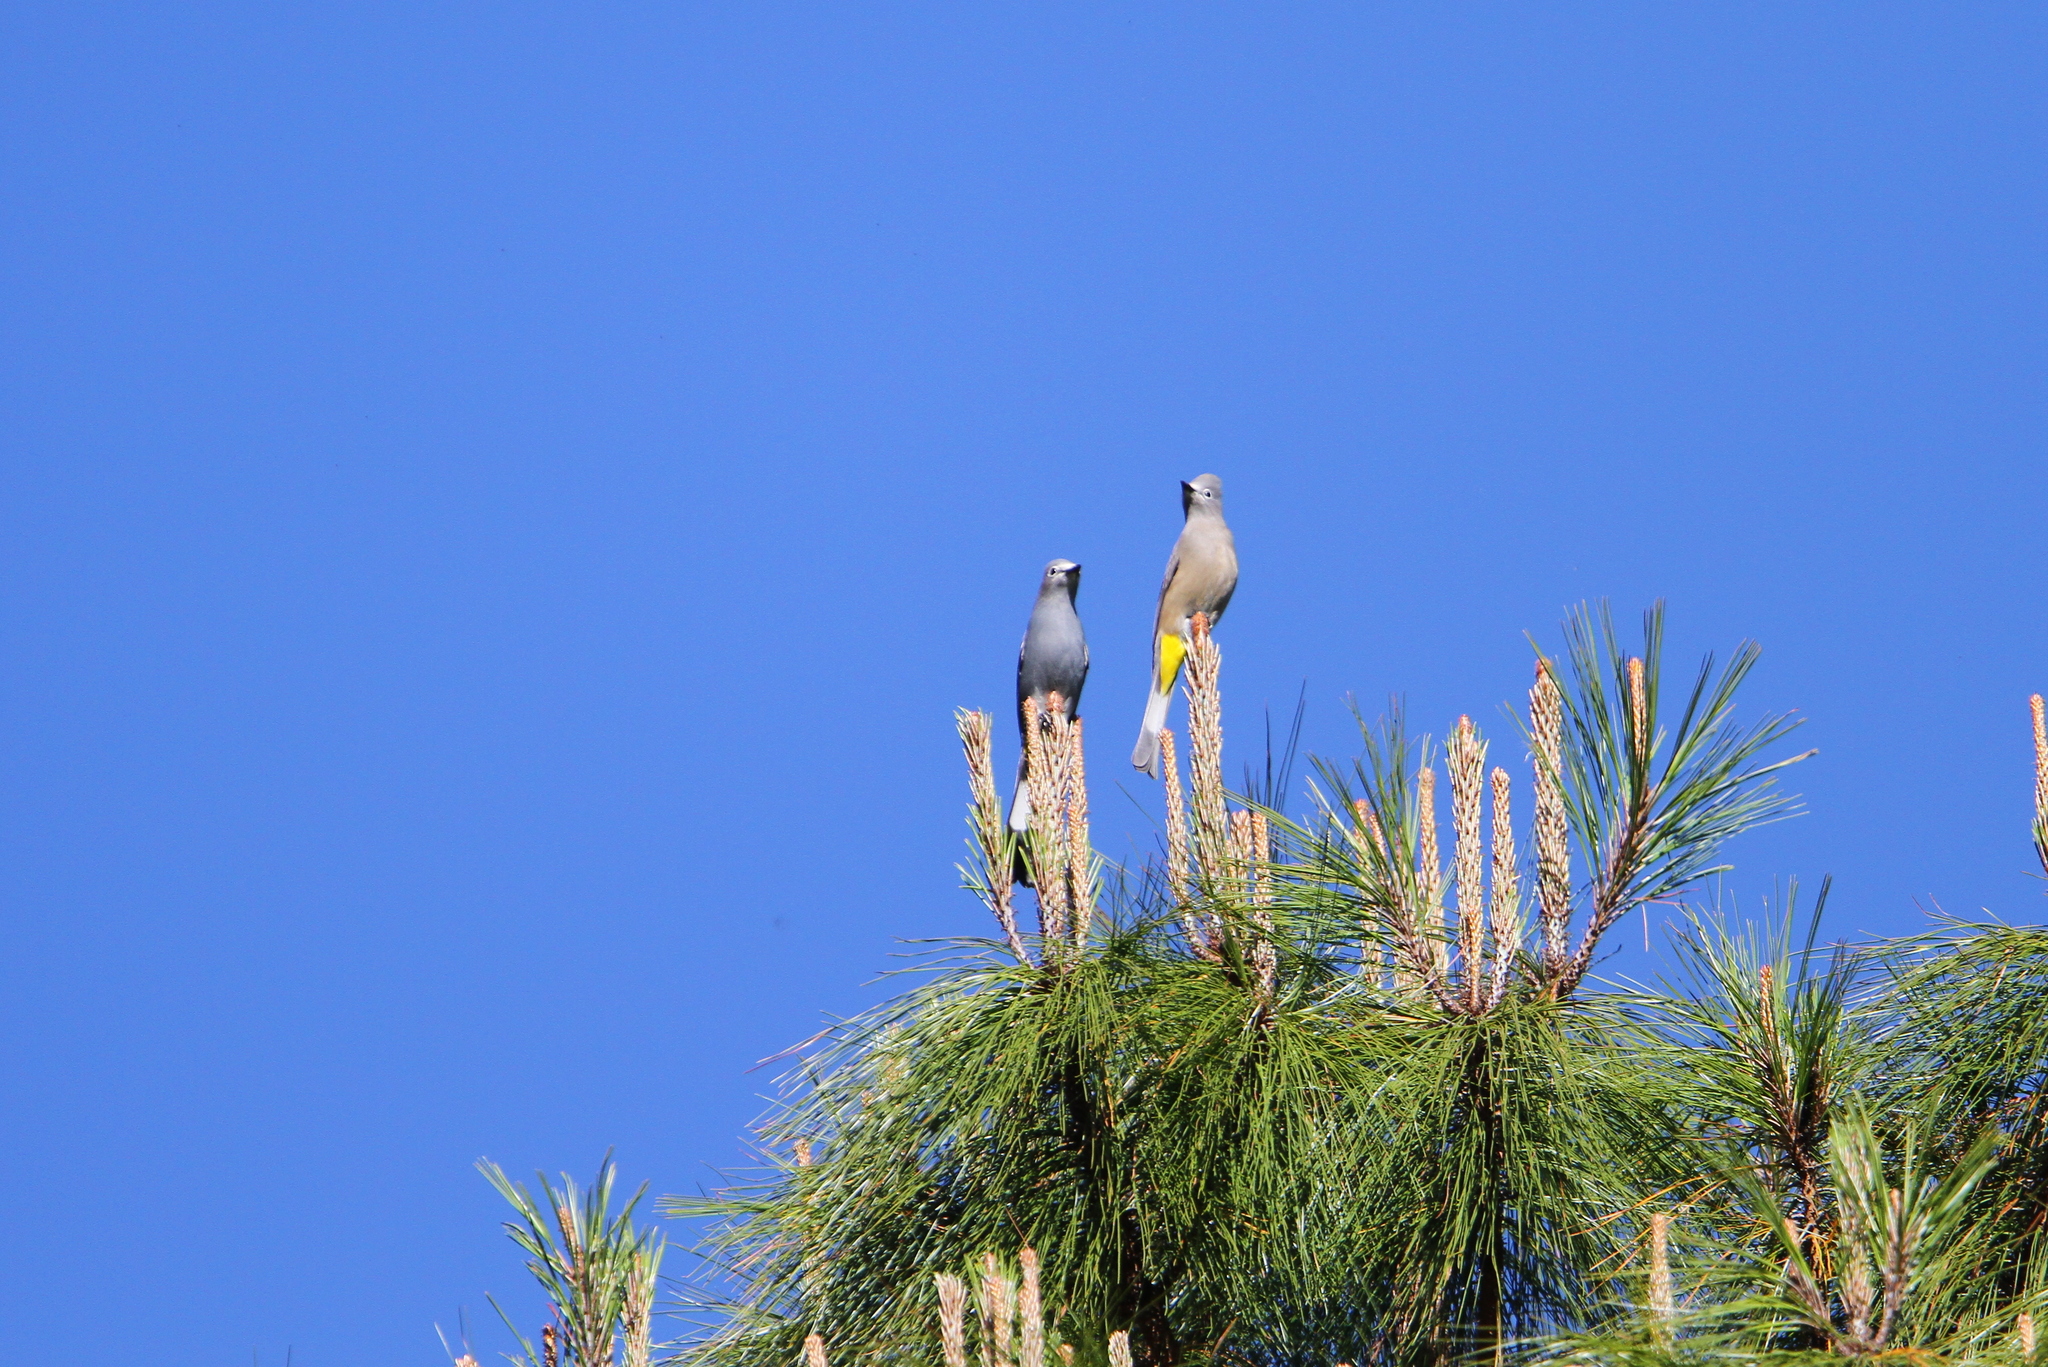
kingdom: Animalia
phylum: Chordata
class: Aves
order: Passeriformes
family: Ptilogonatidae
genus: Ptilogonys
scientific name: Ptilogonys cinereus
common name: Gray silky-flycatcher
